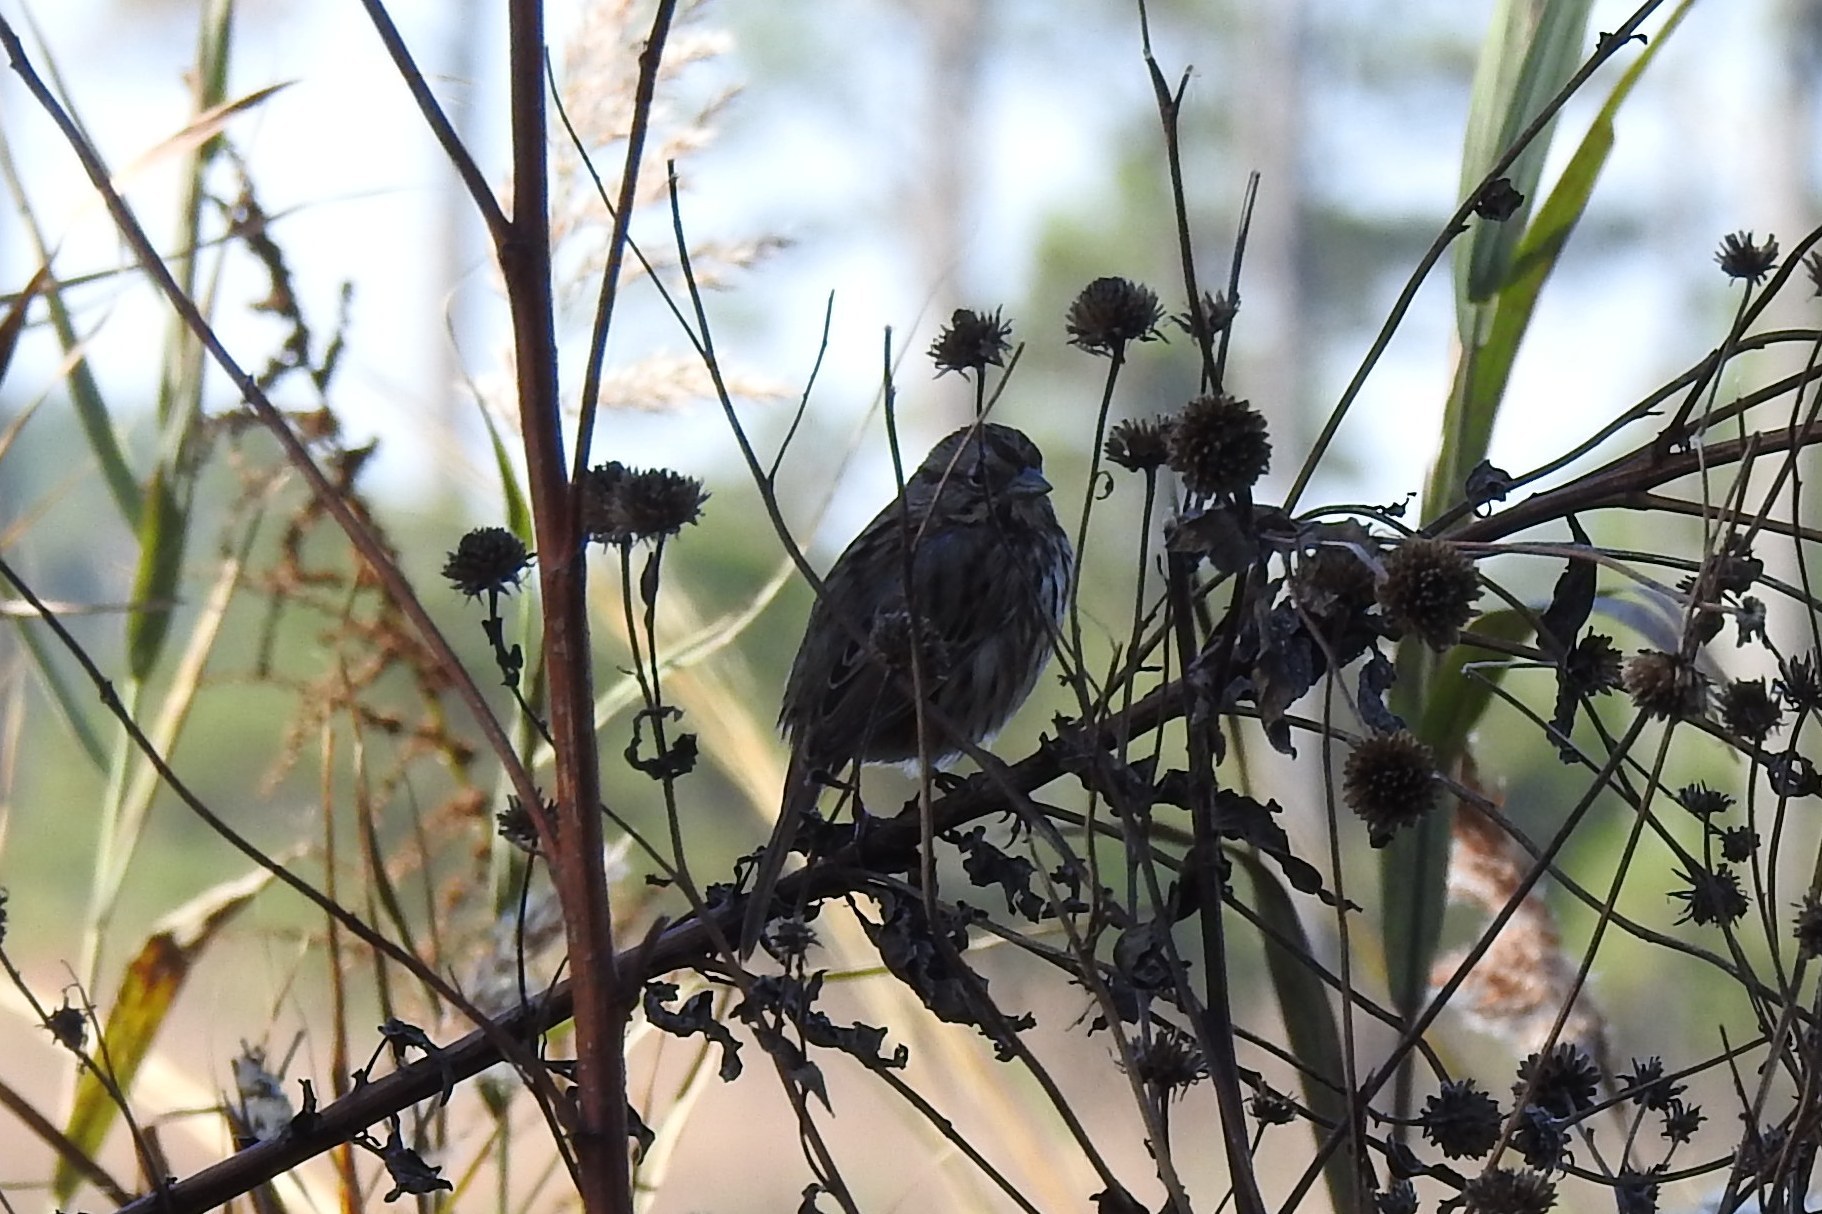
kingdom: Animalia
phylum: Chordata
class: Aves
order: Passeriformes
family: Passerellidae
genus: Melospiza
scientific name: Melospiza melodia
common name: Song sparrow
